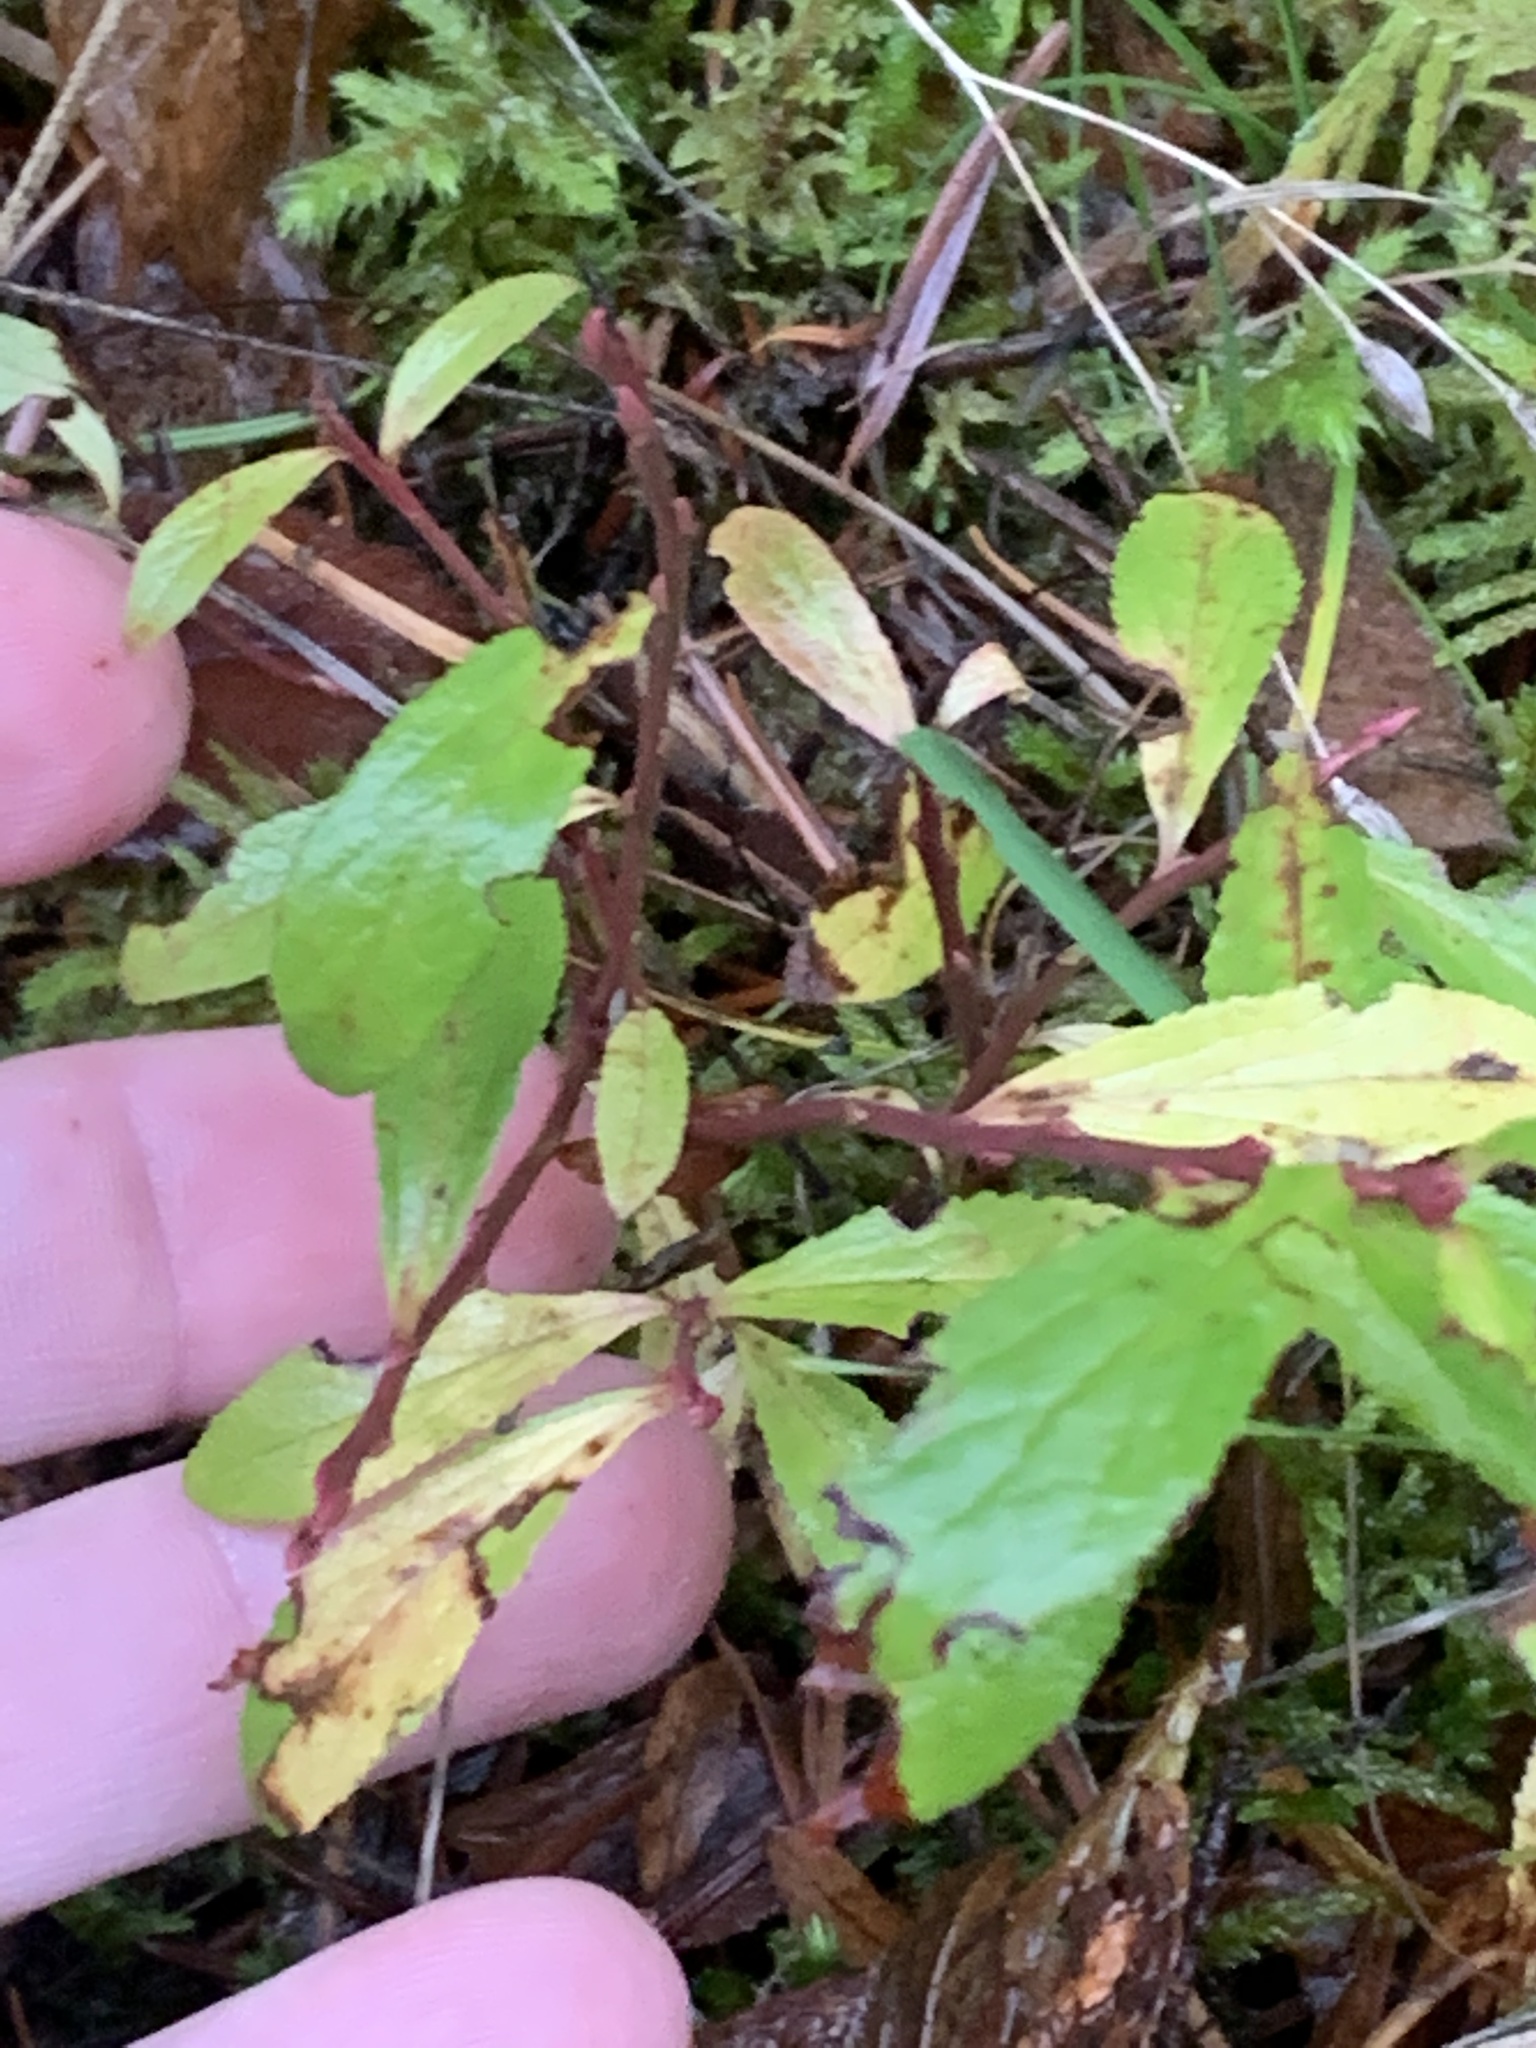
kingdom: Plantae
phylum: Tracheophyta
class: Magnoliopsida
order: Ericales
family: Ericaceae
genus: Vaccinium
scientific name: Vaccinium cespitosum
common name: Dwarf bilberry
